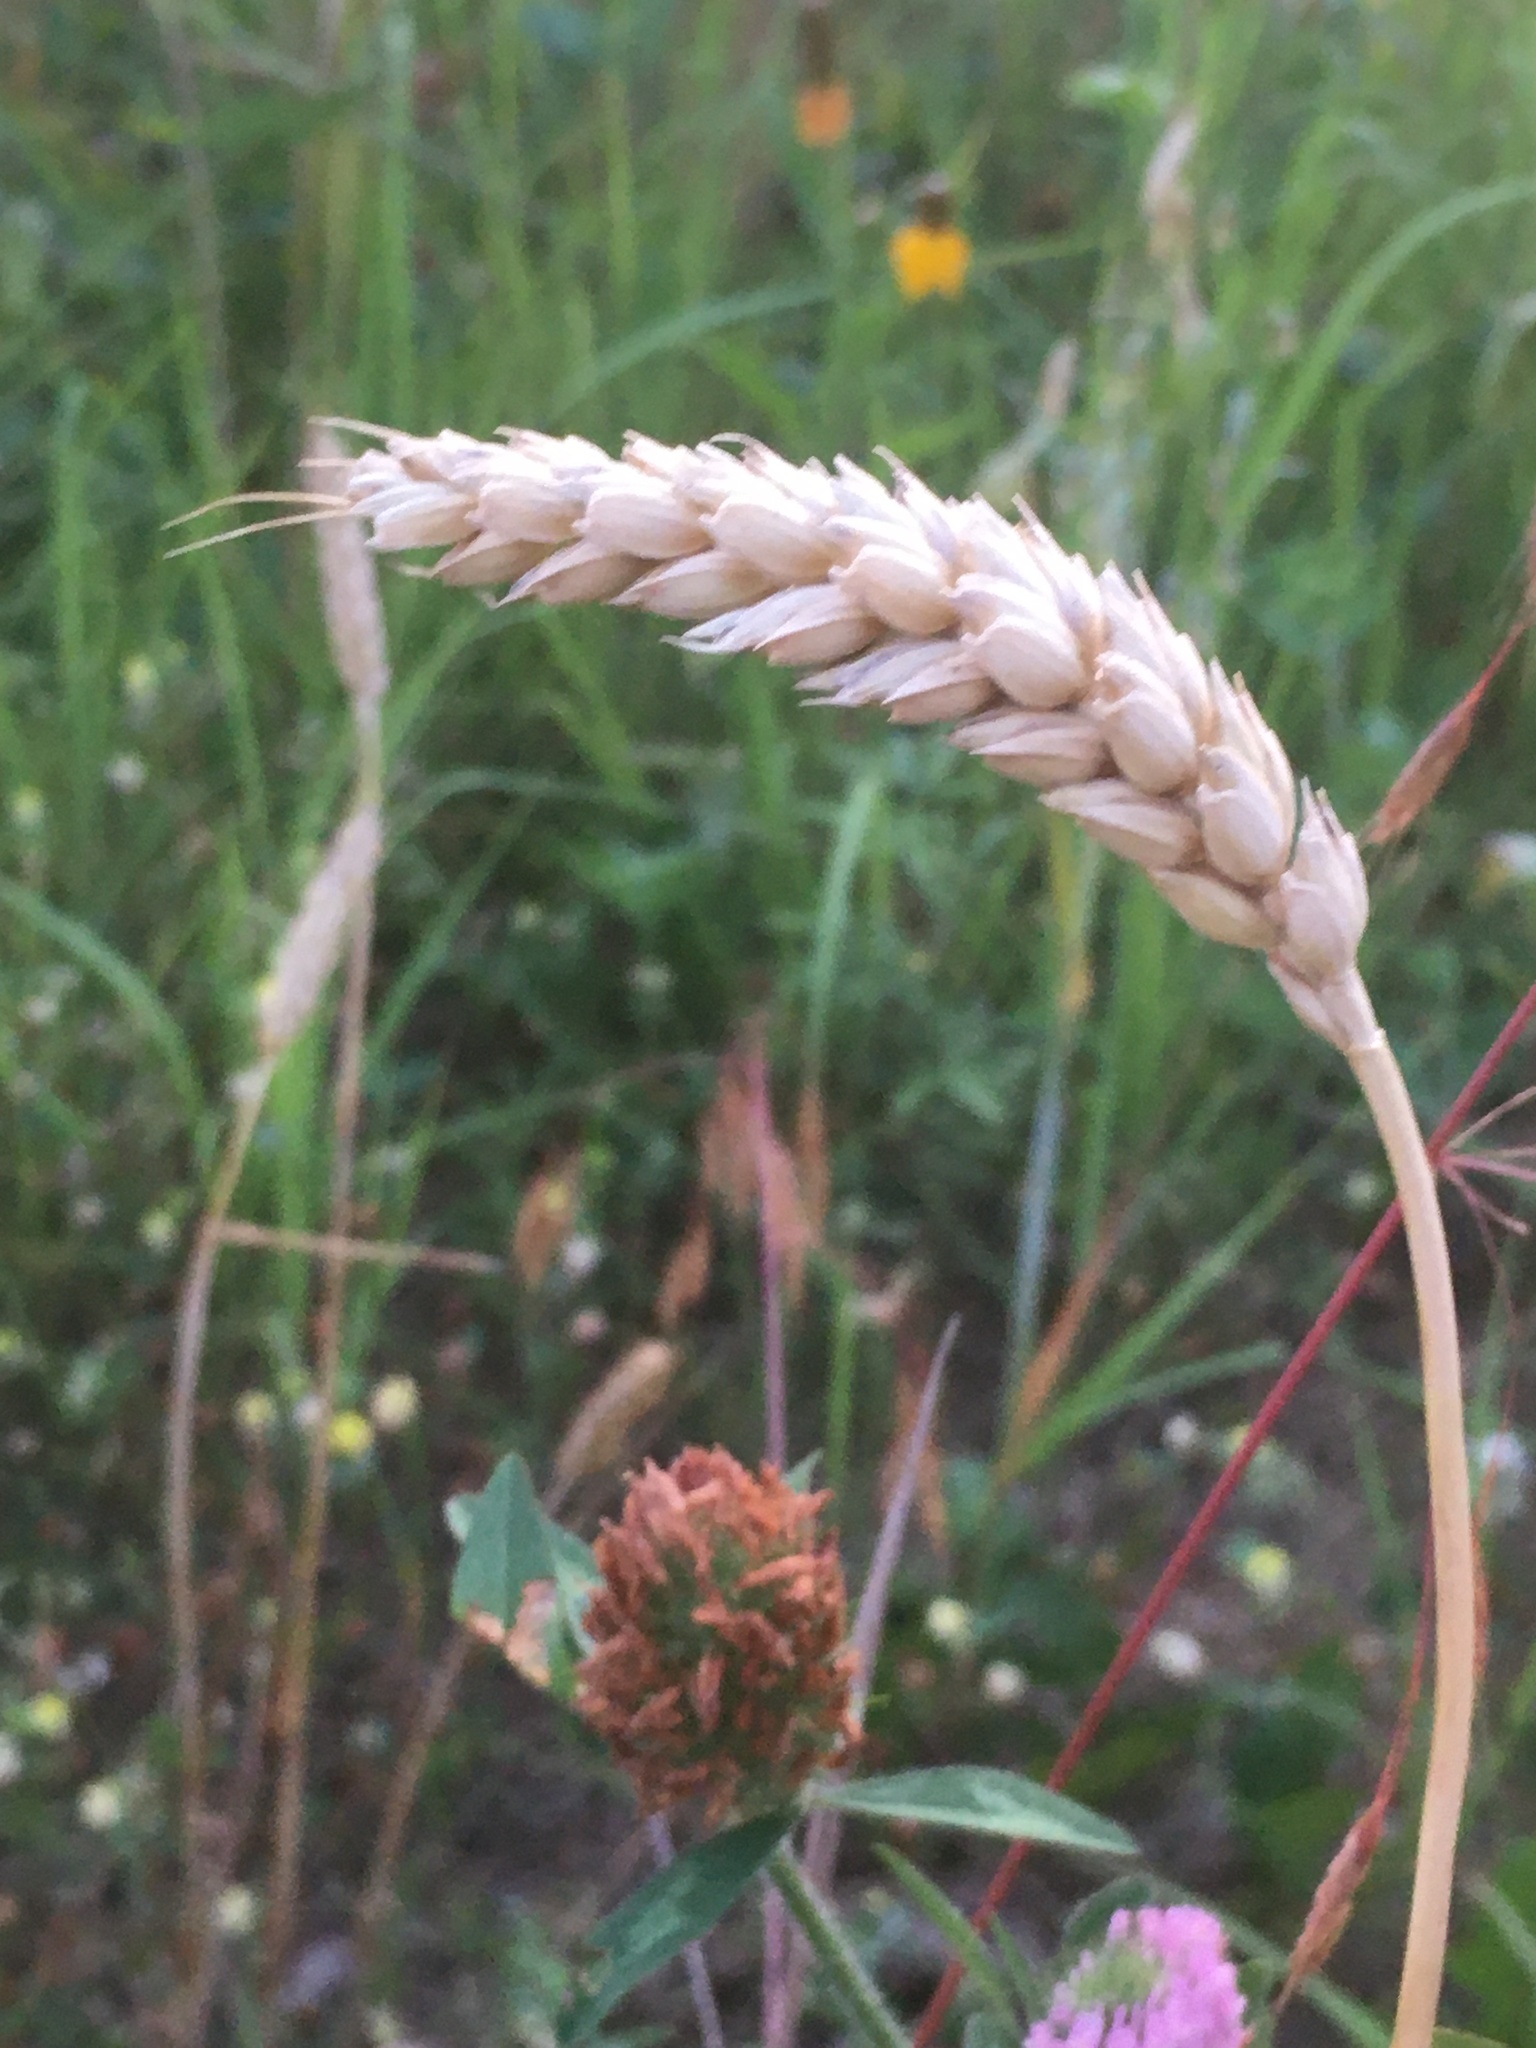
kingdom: Plantae
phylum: Tracheophyta
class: Liliopsida
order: Poales
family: Poaceae
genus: Triticum
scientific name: Triticum aestivum
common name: Common wheat
